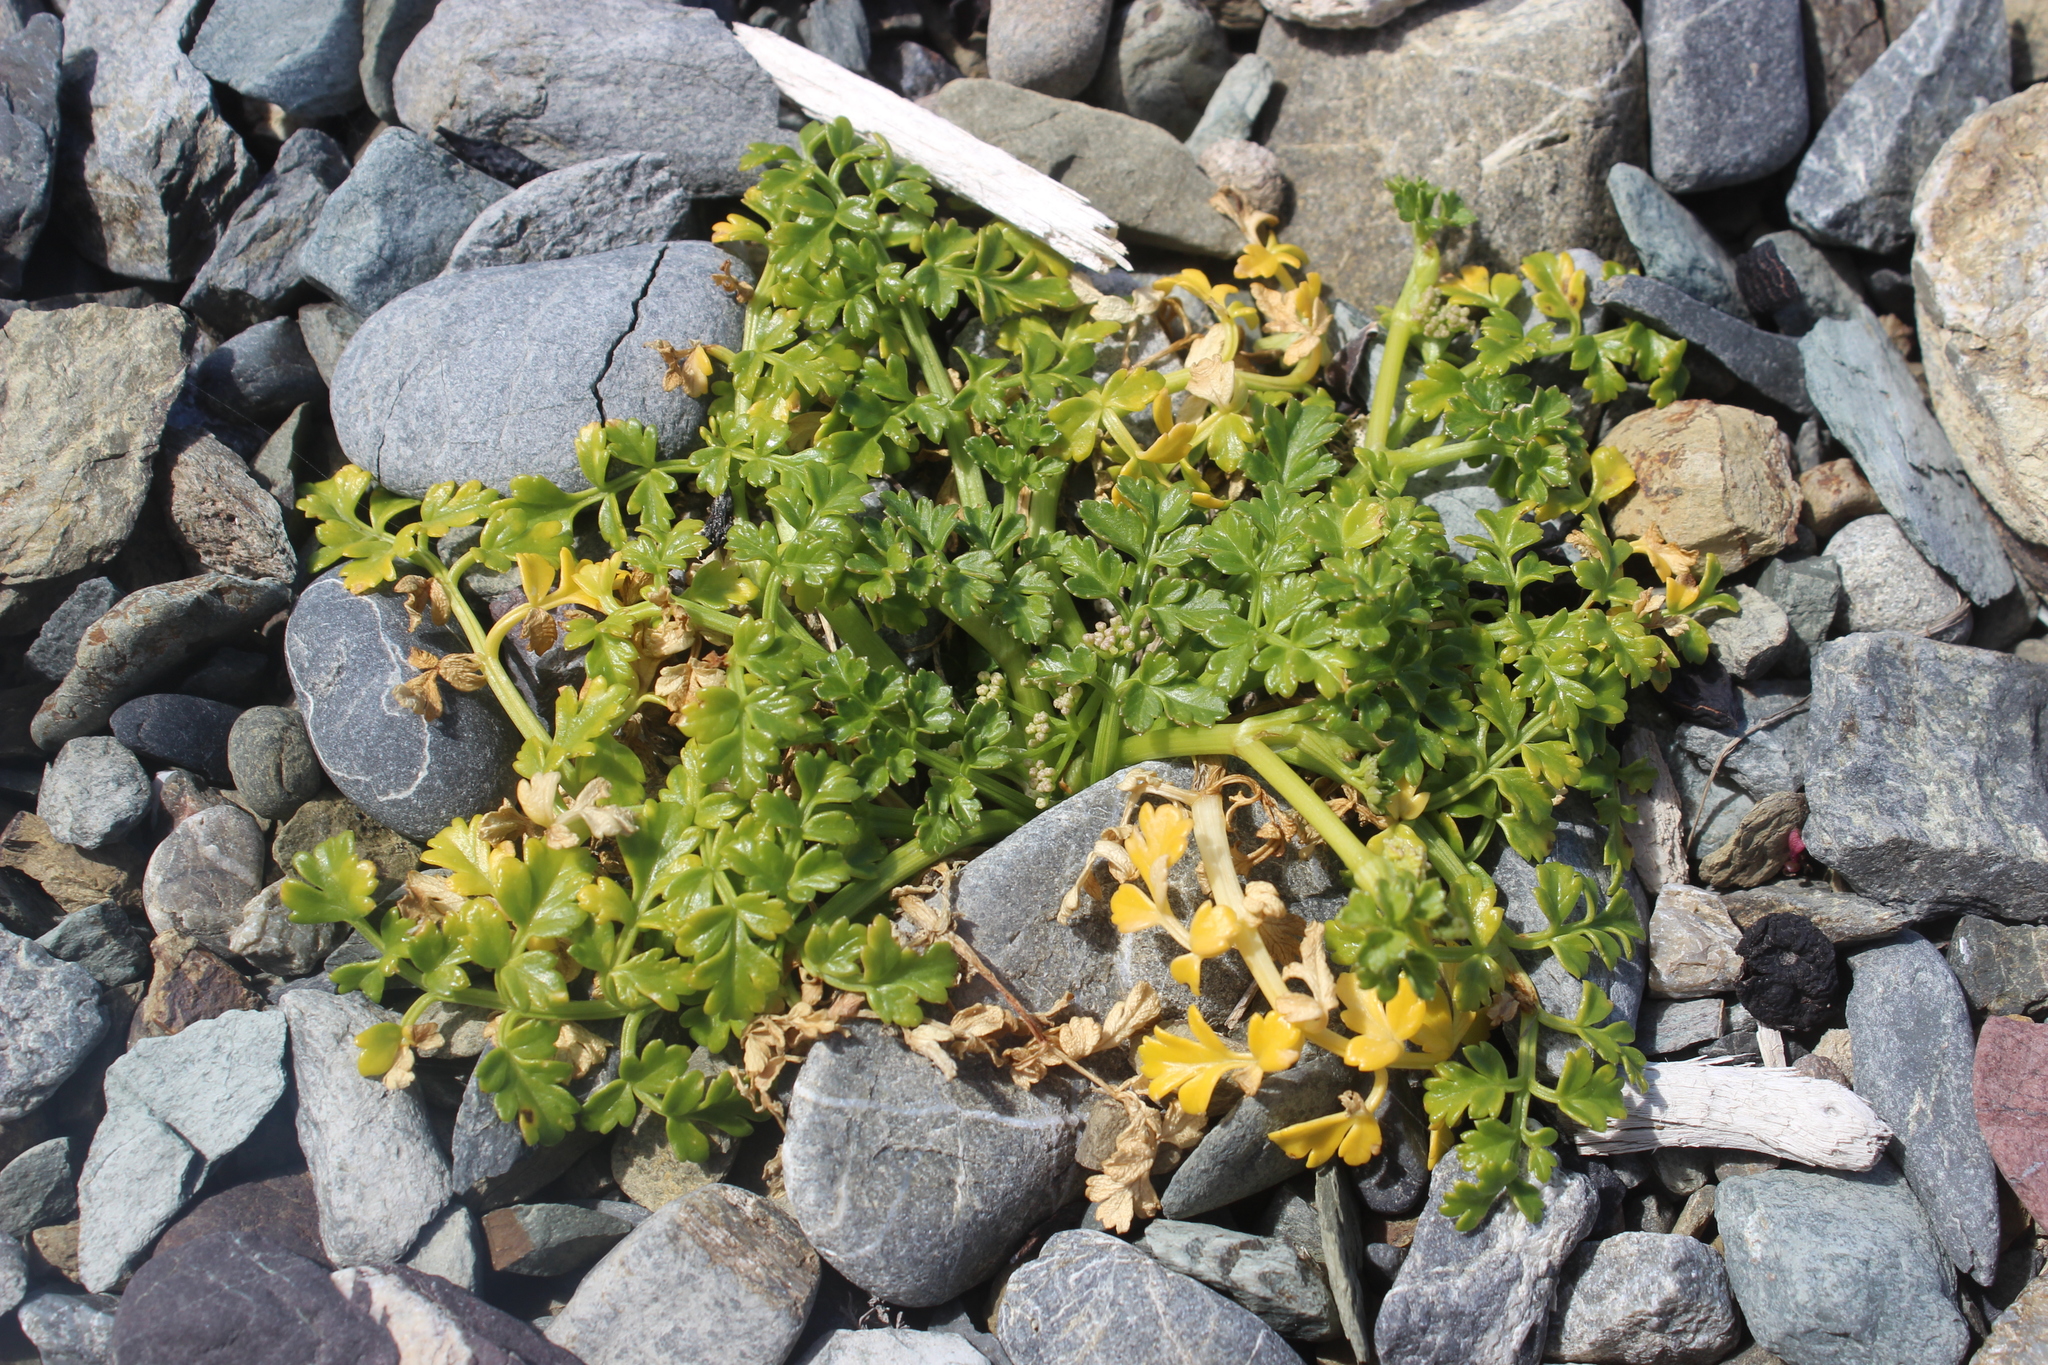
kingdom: Plantae
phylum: Tracheophyta
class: Magnoliopsida
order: Apiales
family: Apiaceae
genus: Apium
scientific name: Apium prostratum
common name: Prostrate marshwort
